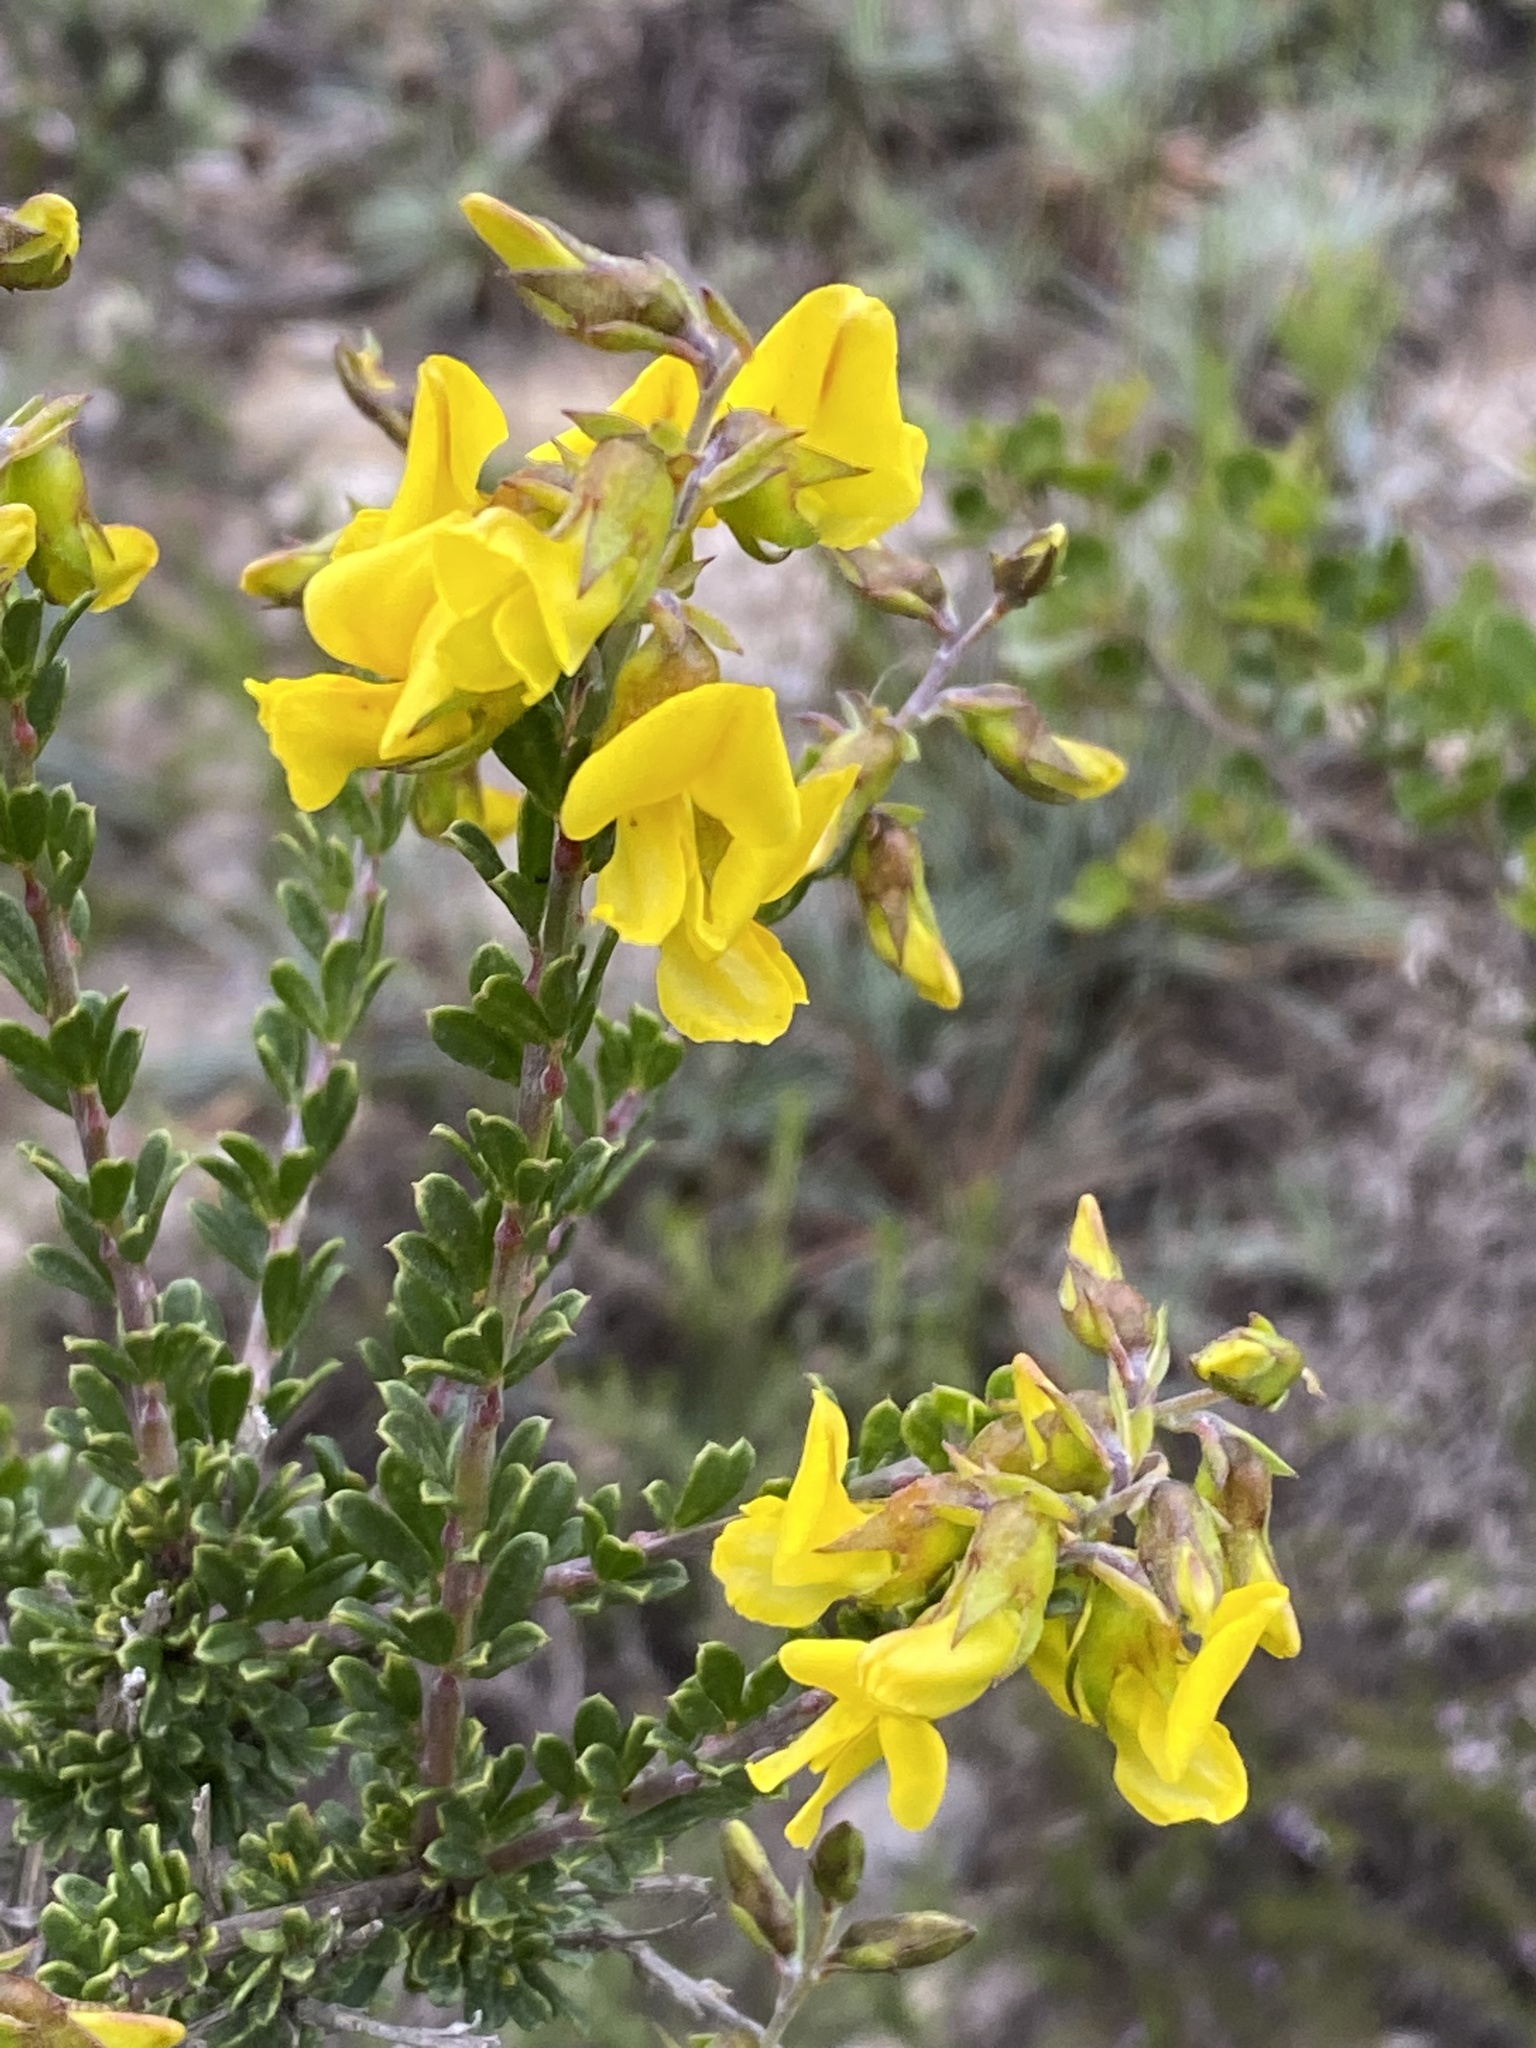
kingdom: Plantae
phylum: Tracheophyta
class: Magnoliopsida
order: Fabales
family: Fabaceae
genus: Wiborgiella
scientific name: Wiborgiella sessilifolia
